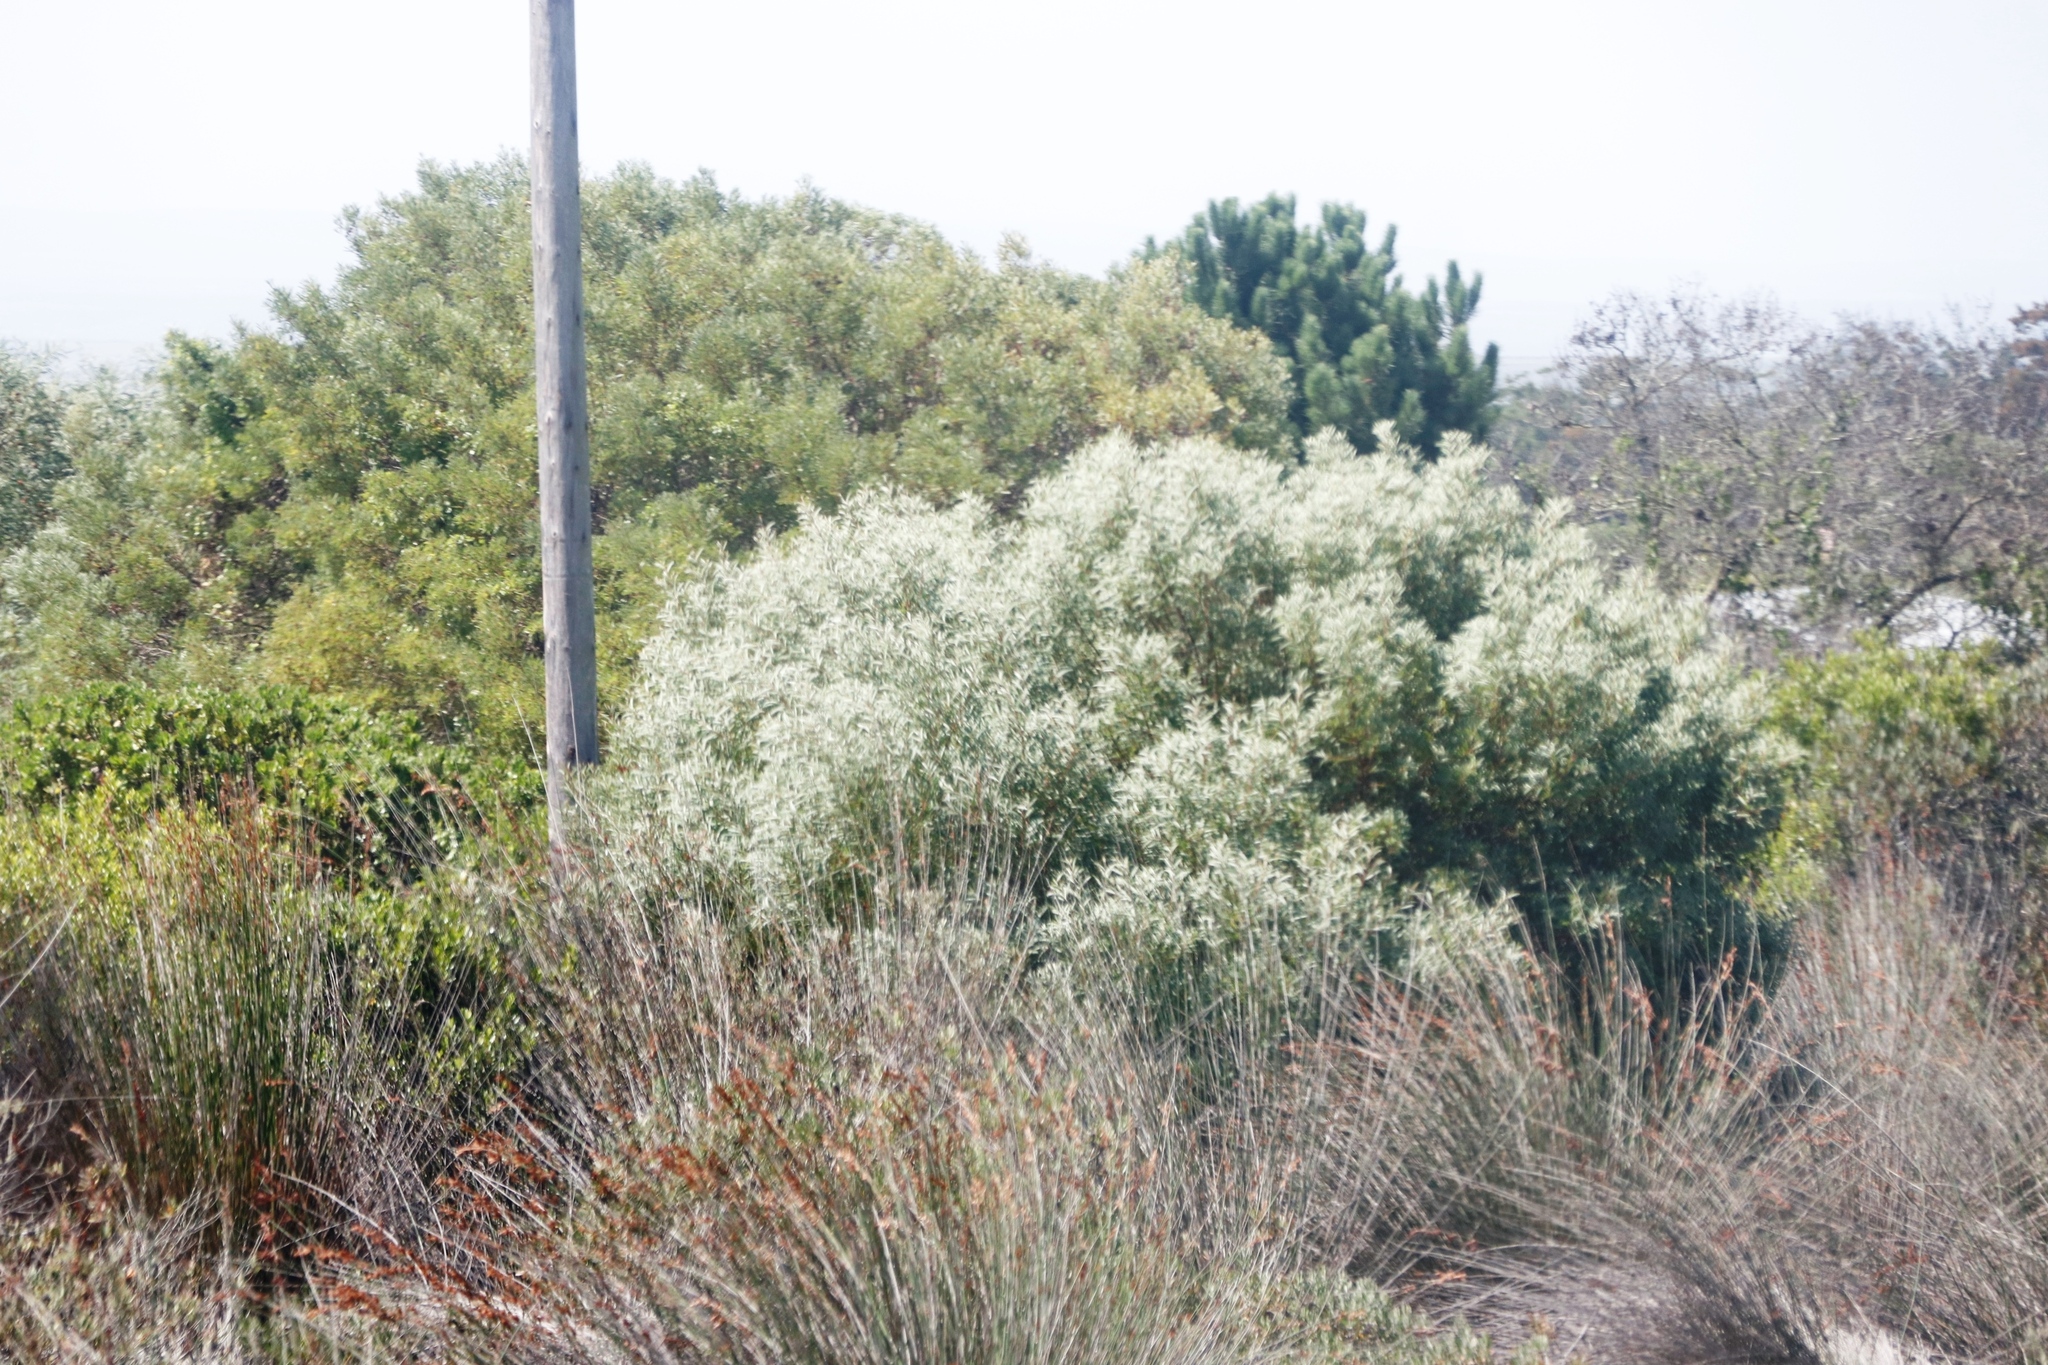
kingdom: Plantae
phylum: Tracheophyta
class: Magnoliopsida
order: Proteales
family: Proteaceae
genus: Protea
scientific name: Protea susannae
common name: Foetid-leaf sugarbush
